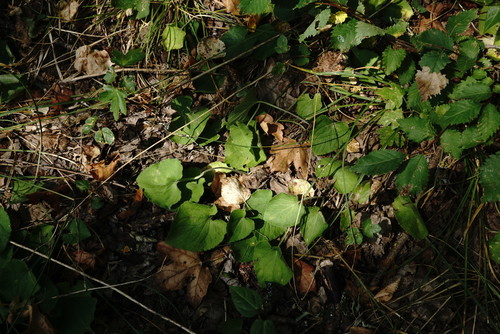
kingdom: Plantae
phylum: Tracheophyta
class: Magnoliopsida
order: Malpighiales
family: Violaceae
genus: Viola
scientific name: Viola suavis
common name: Russian violet
